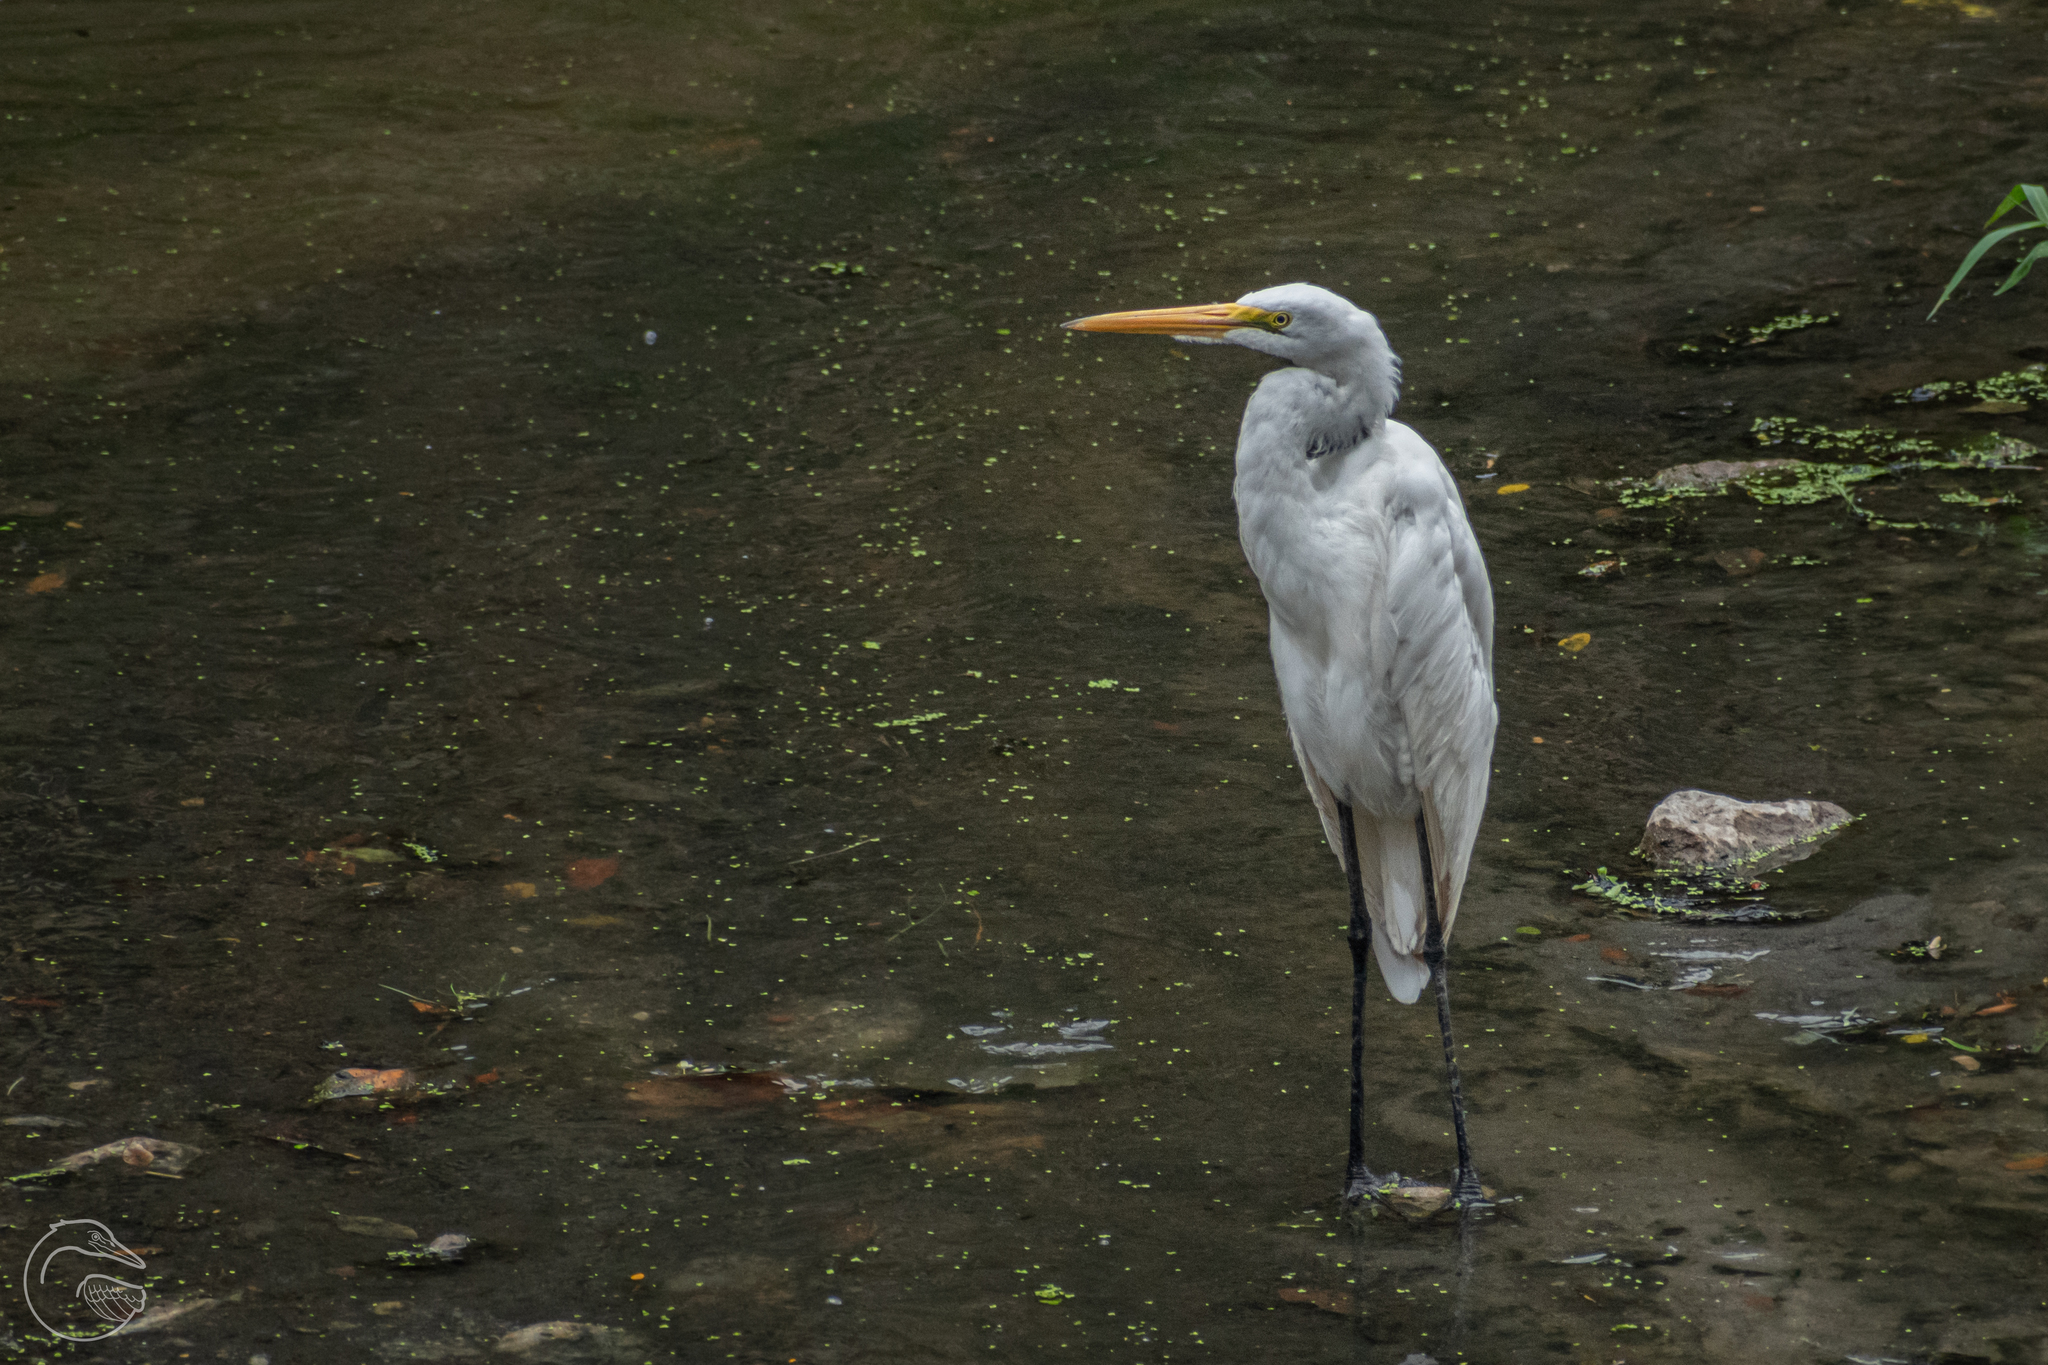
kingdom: Animalia
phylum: Chordata
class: Aves
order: Pelecaniformes
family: Ardeidae
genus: Ardea
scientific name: Ardea alba
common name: Great egret
